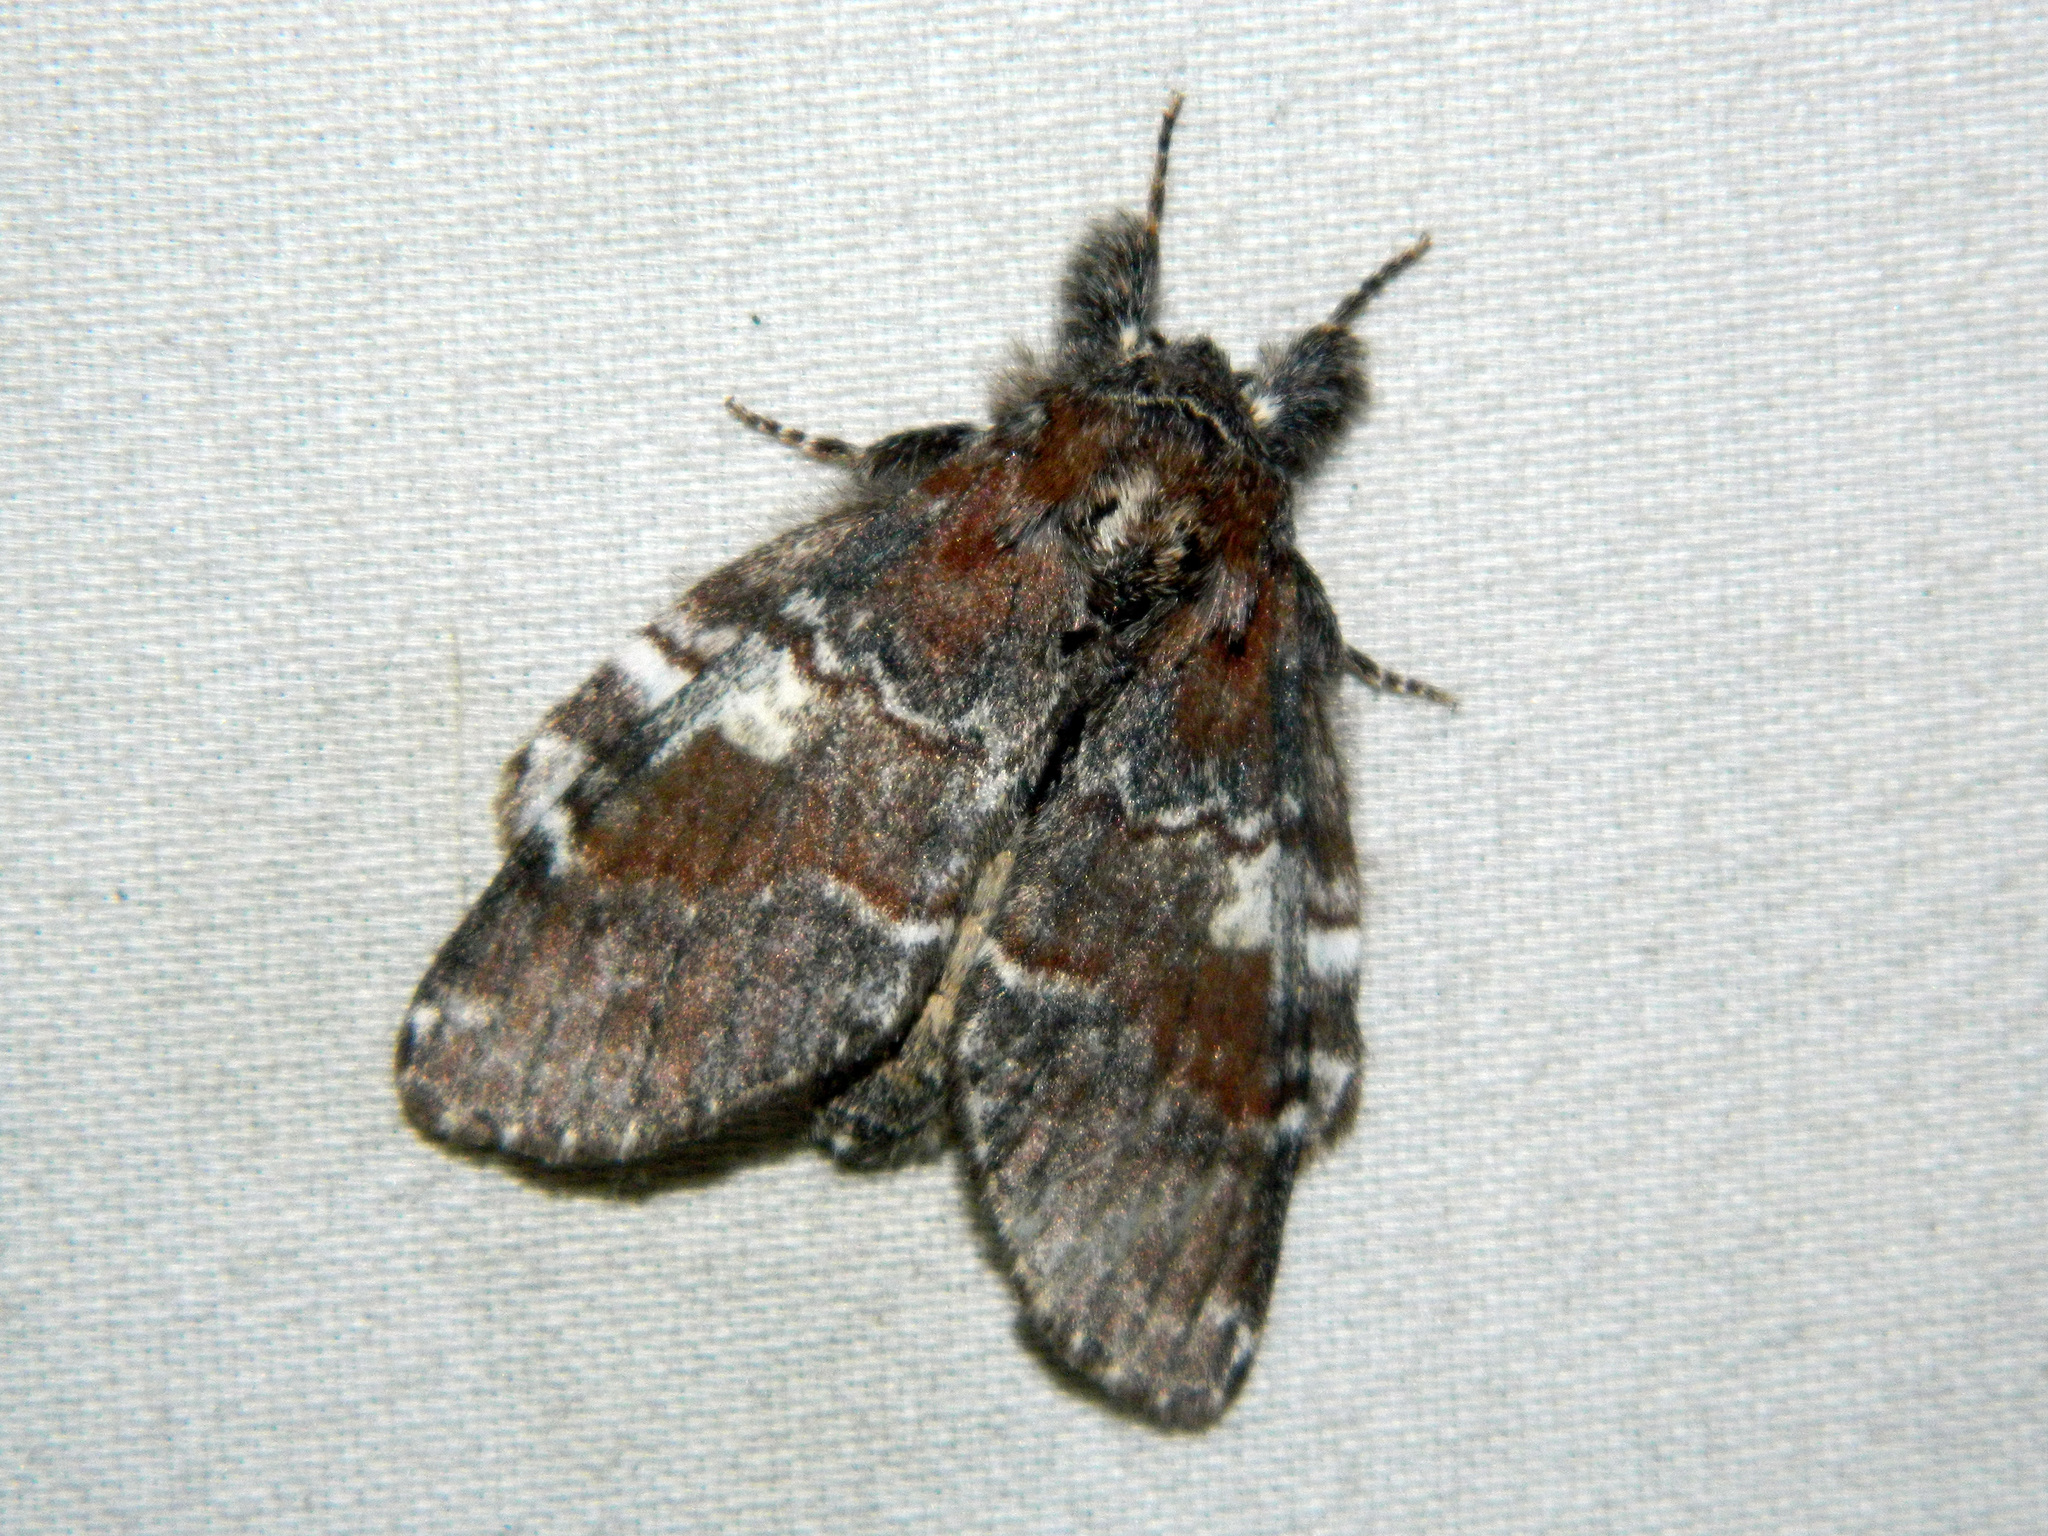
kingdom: Animalia
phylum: Arthropoda
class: Insecta
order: Lepidoptera
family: Notodontidae
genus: Peridea
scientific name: Peridea ferruginea
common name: Chocolate prominent
